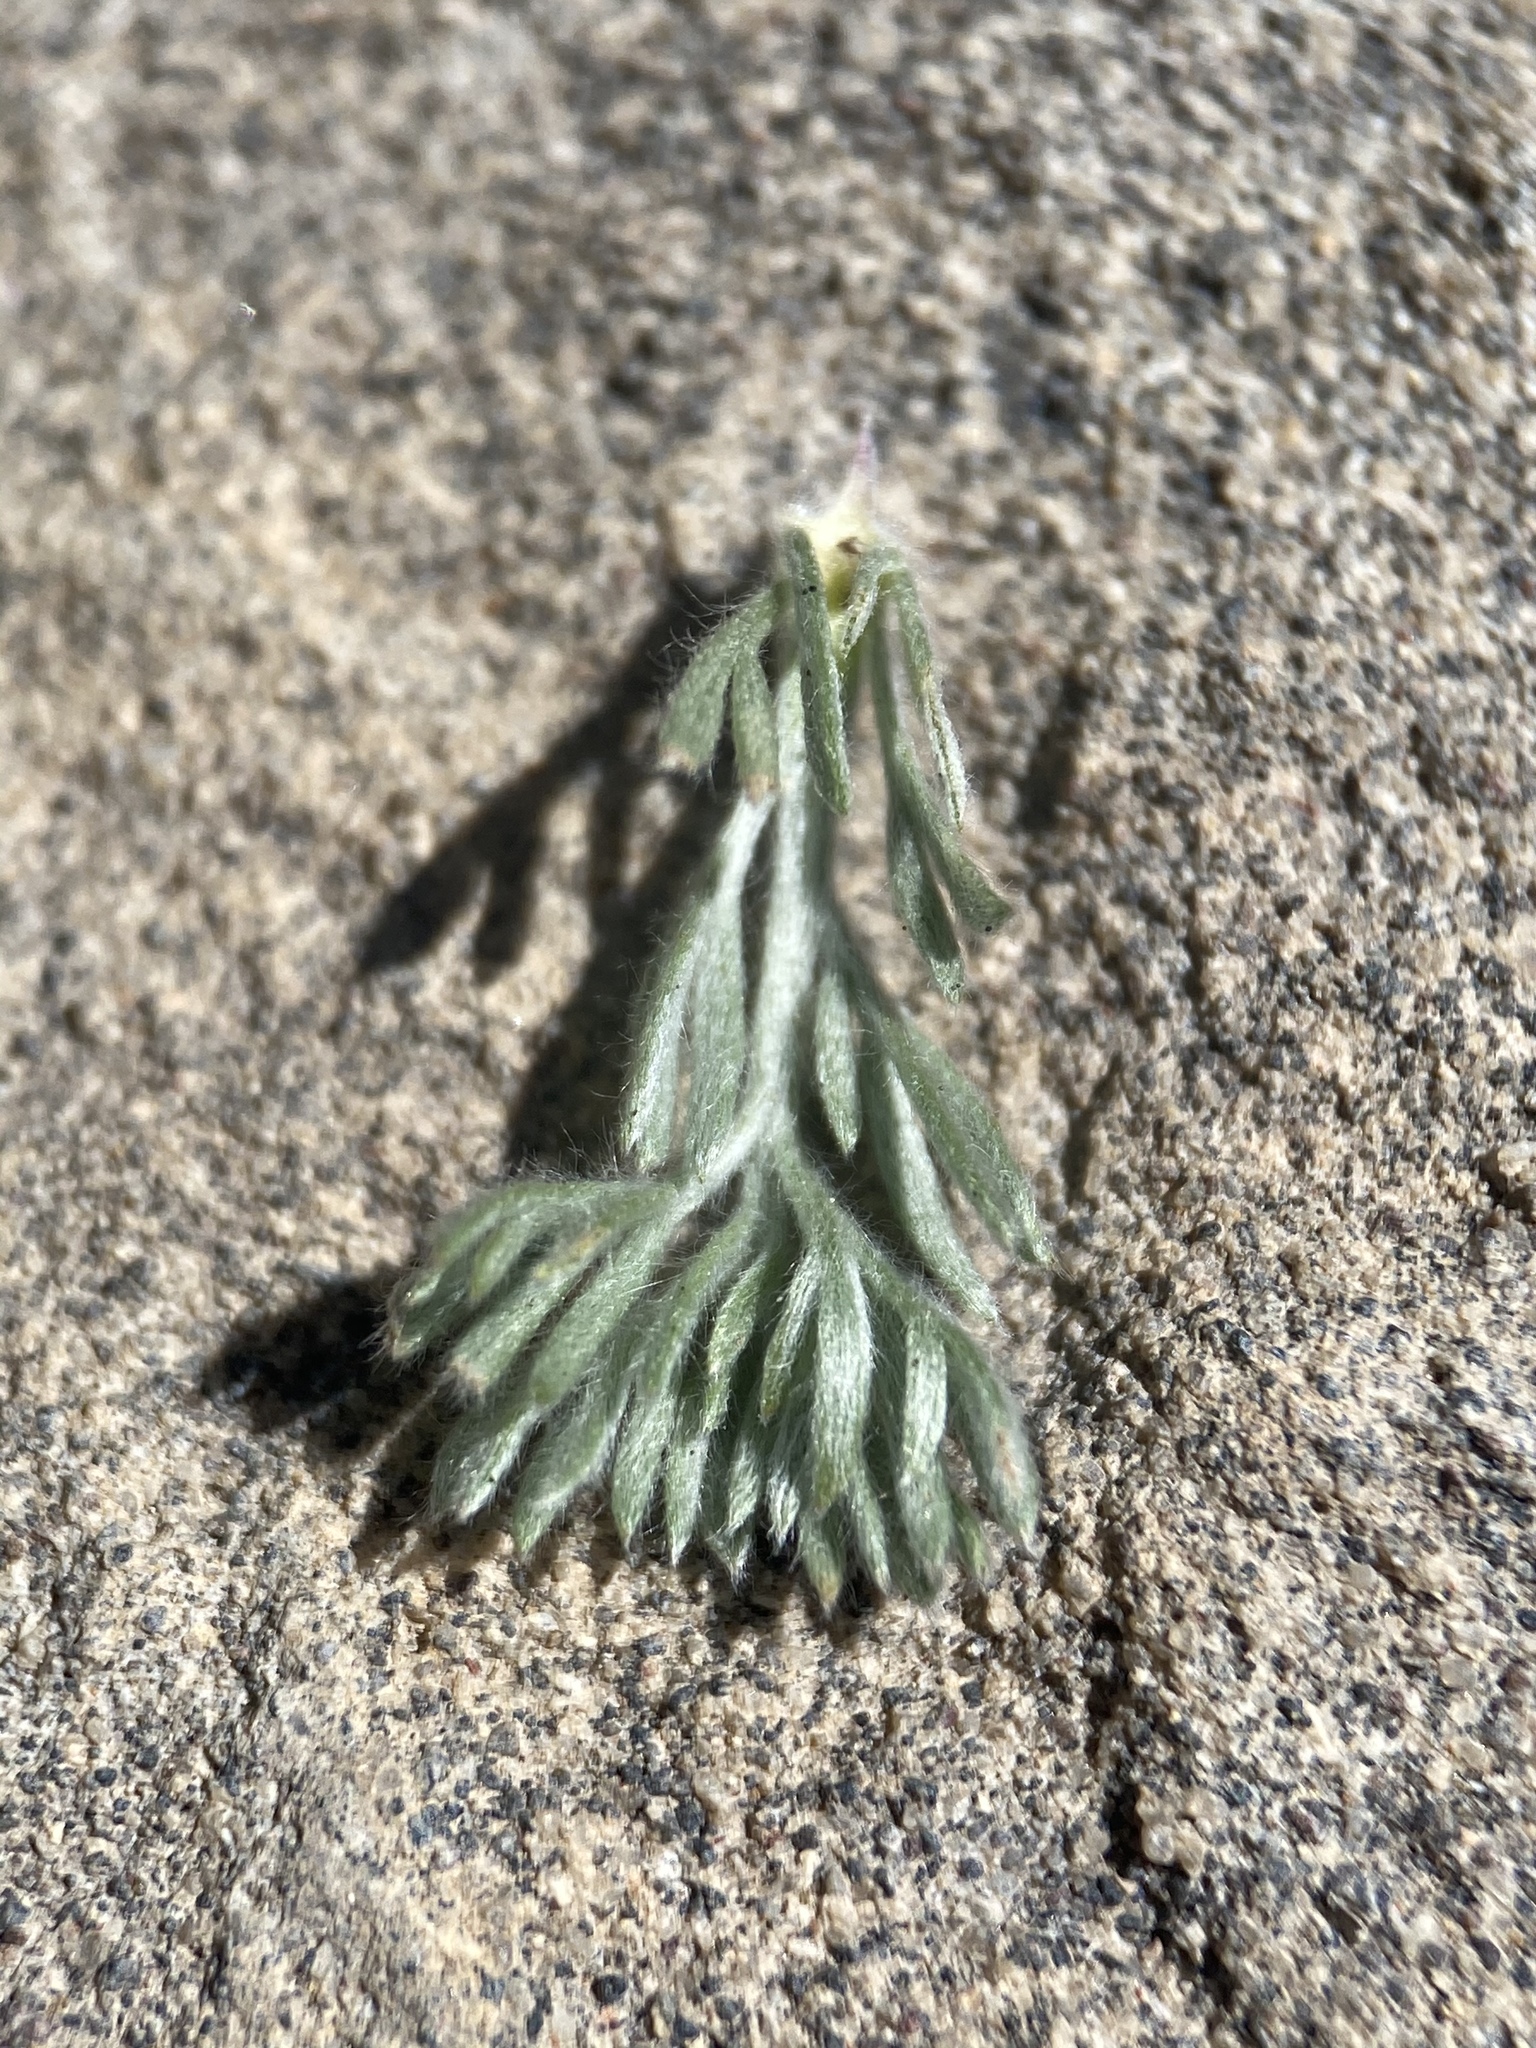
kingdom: Plantae
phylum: Tracheophyta
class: Magnoliopsida
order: Asterales
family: Asteraceae
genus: Artemisia
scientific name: Artemisia frigida
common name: Prairie sagewort
